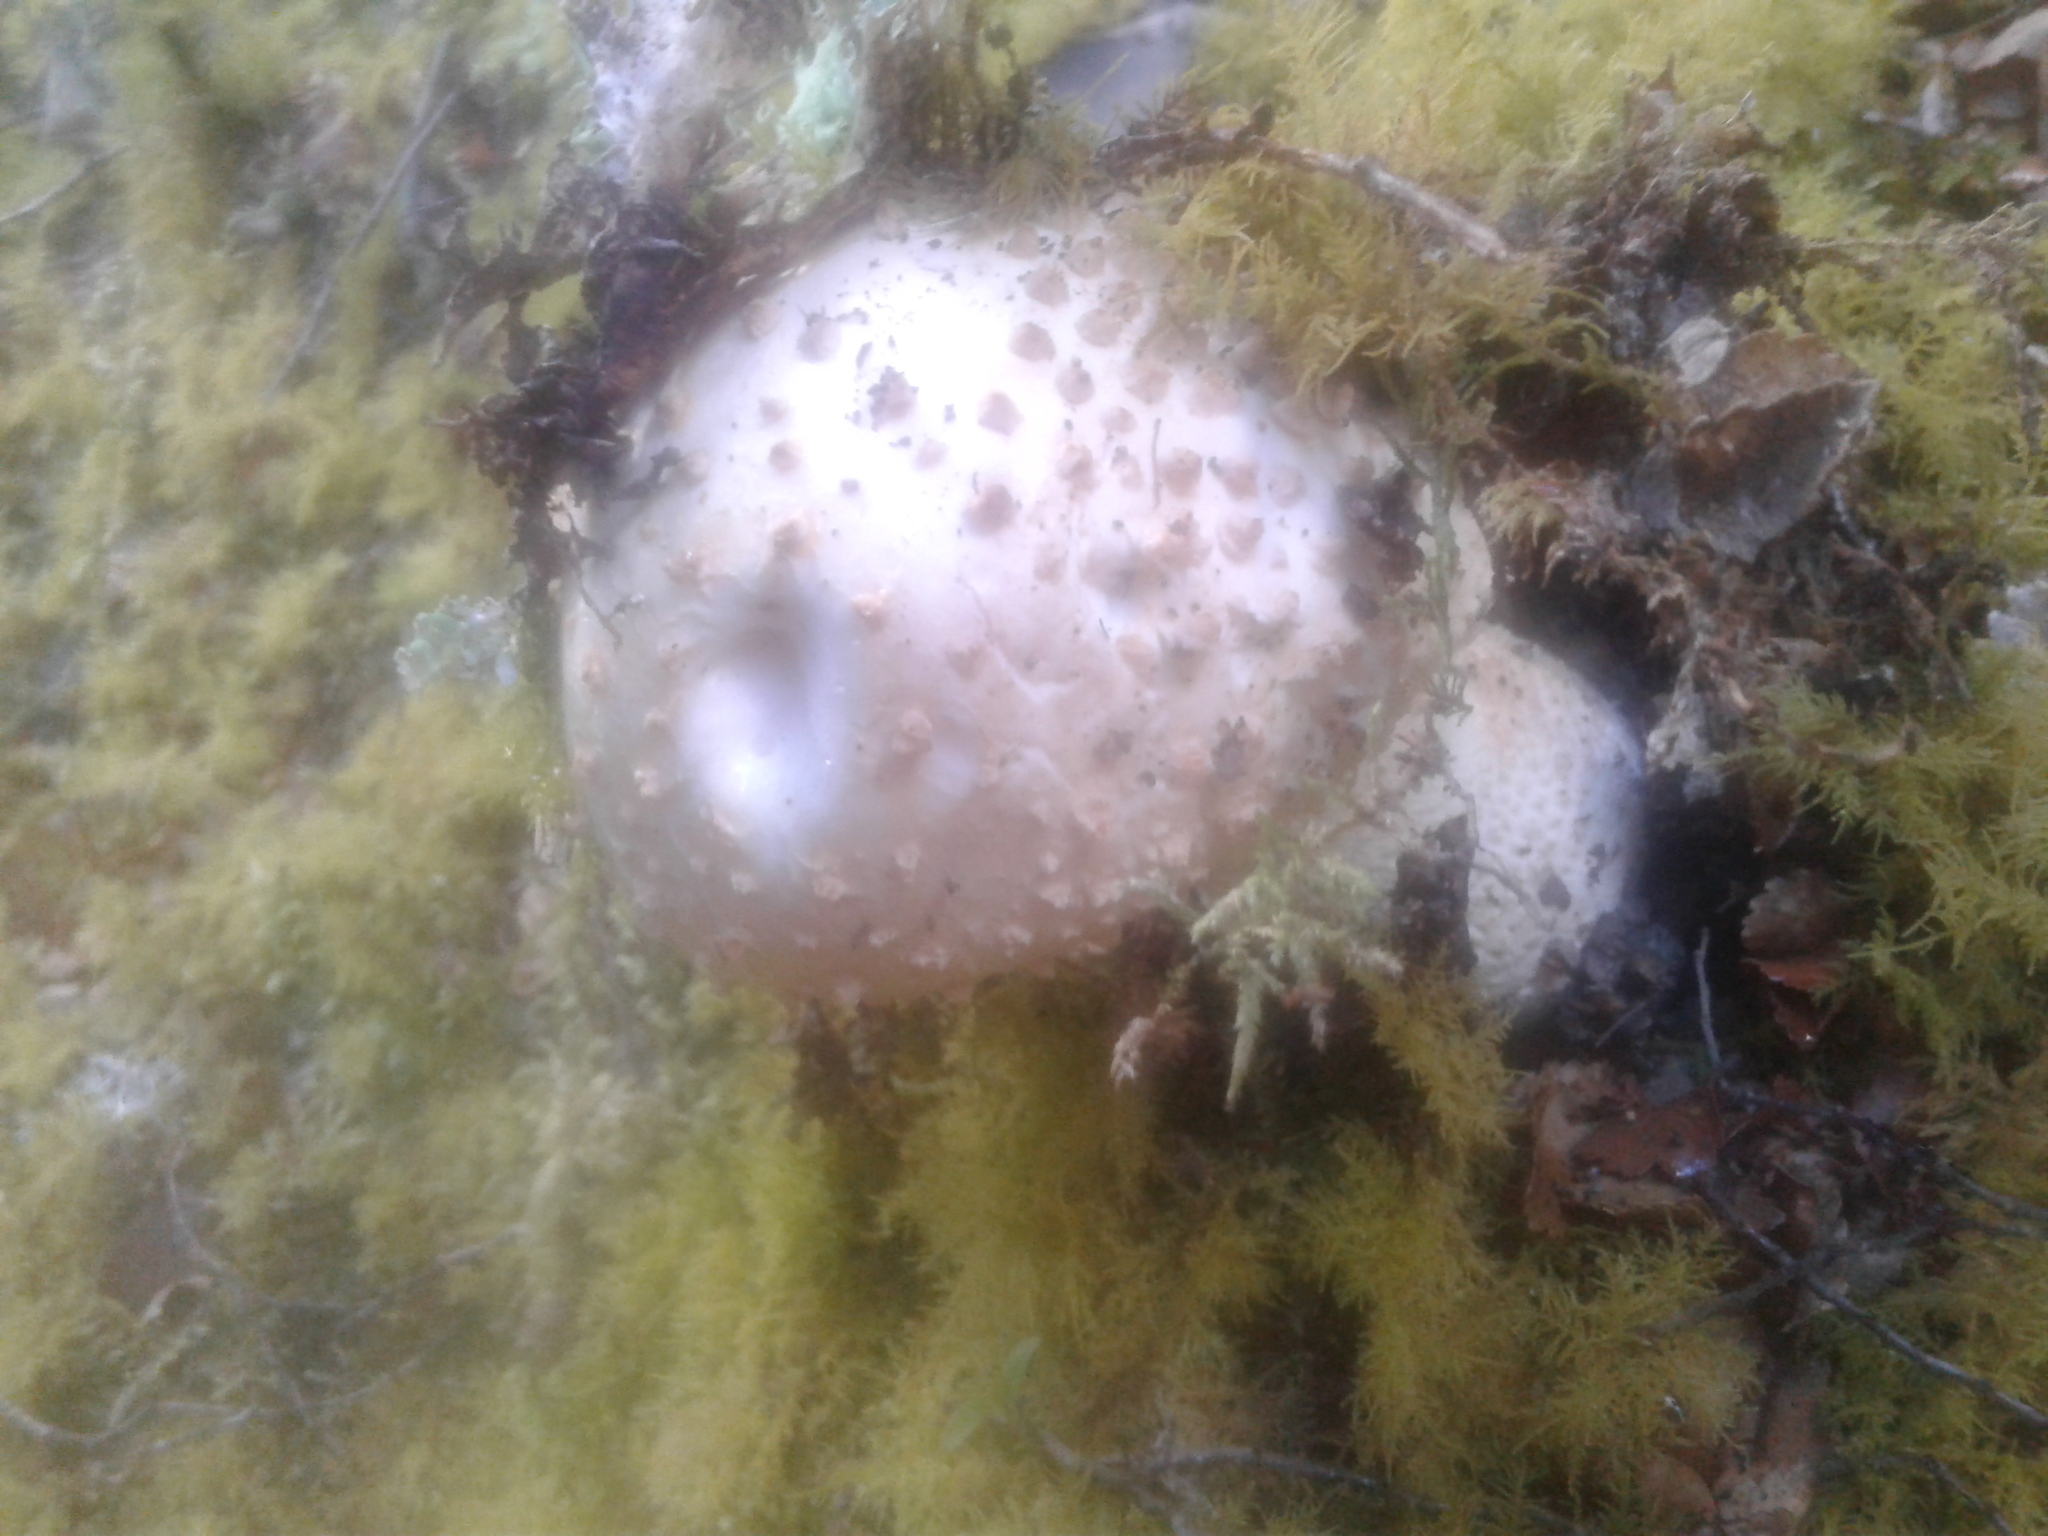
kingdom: Fungi
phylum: Basidiomycota
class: Agaricomycetes
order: Agaricales
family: Amanitaceae
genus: Amanita
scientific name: Amanita pareparina
